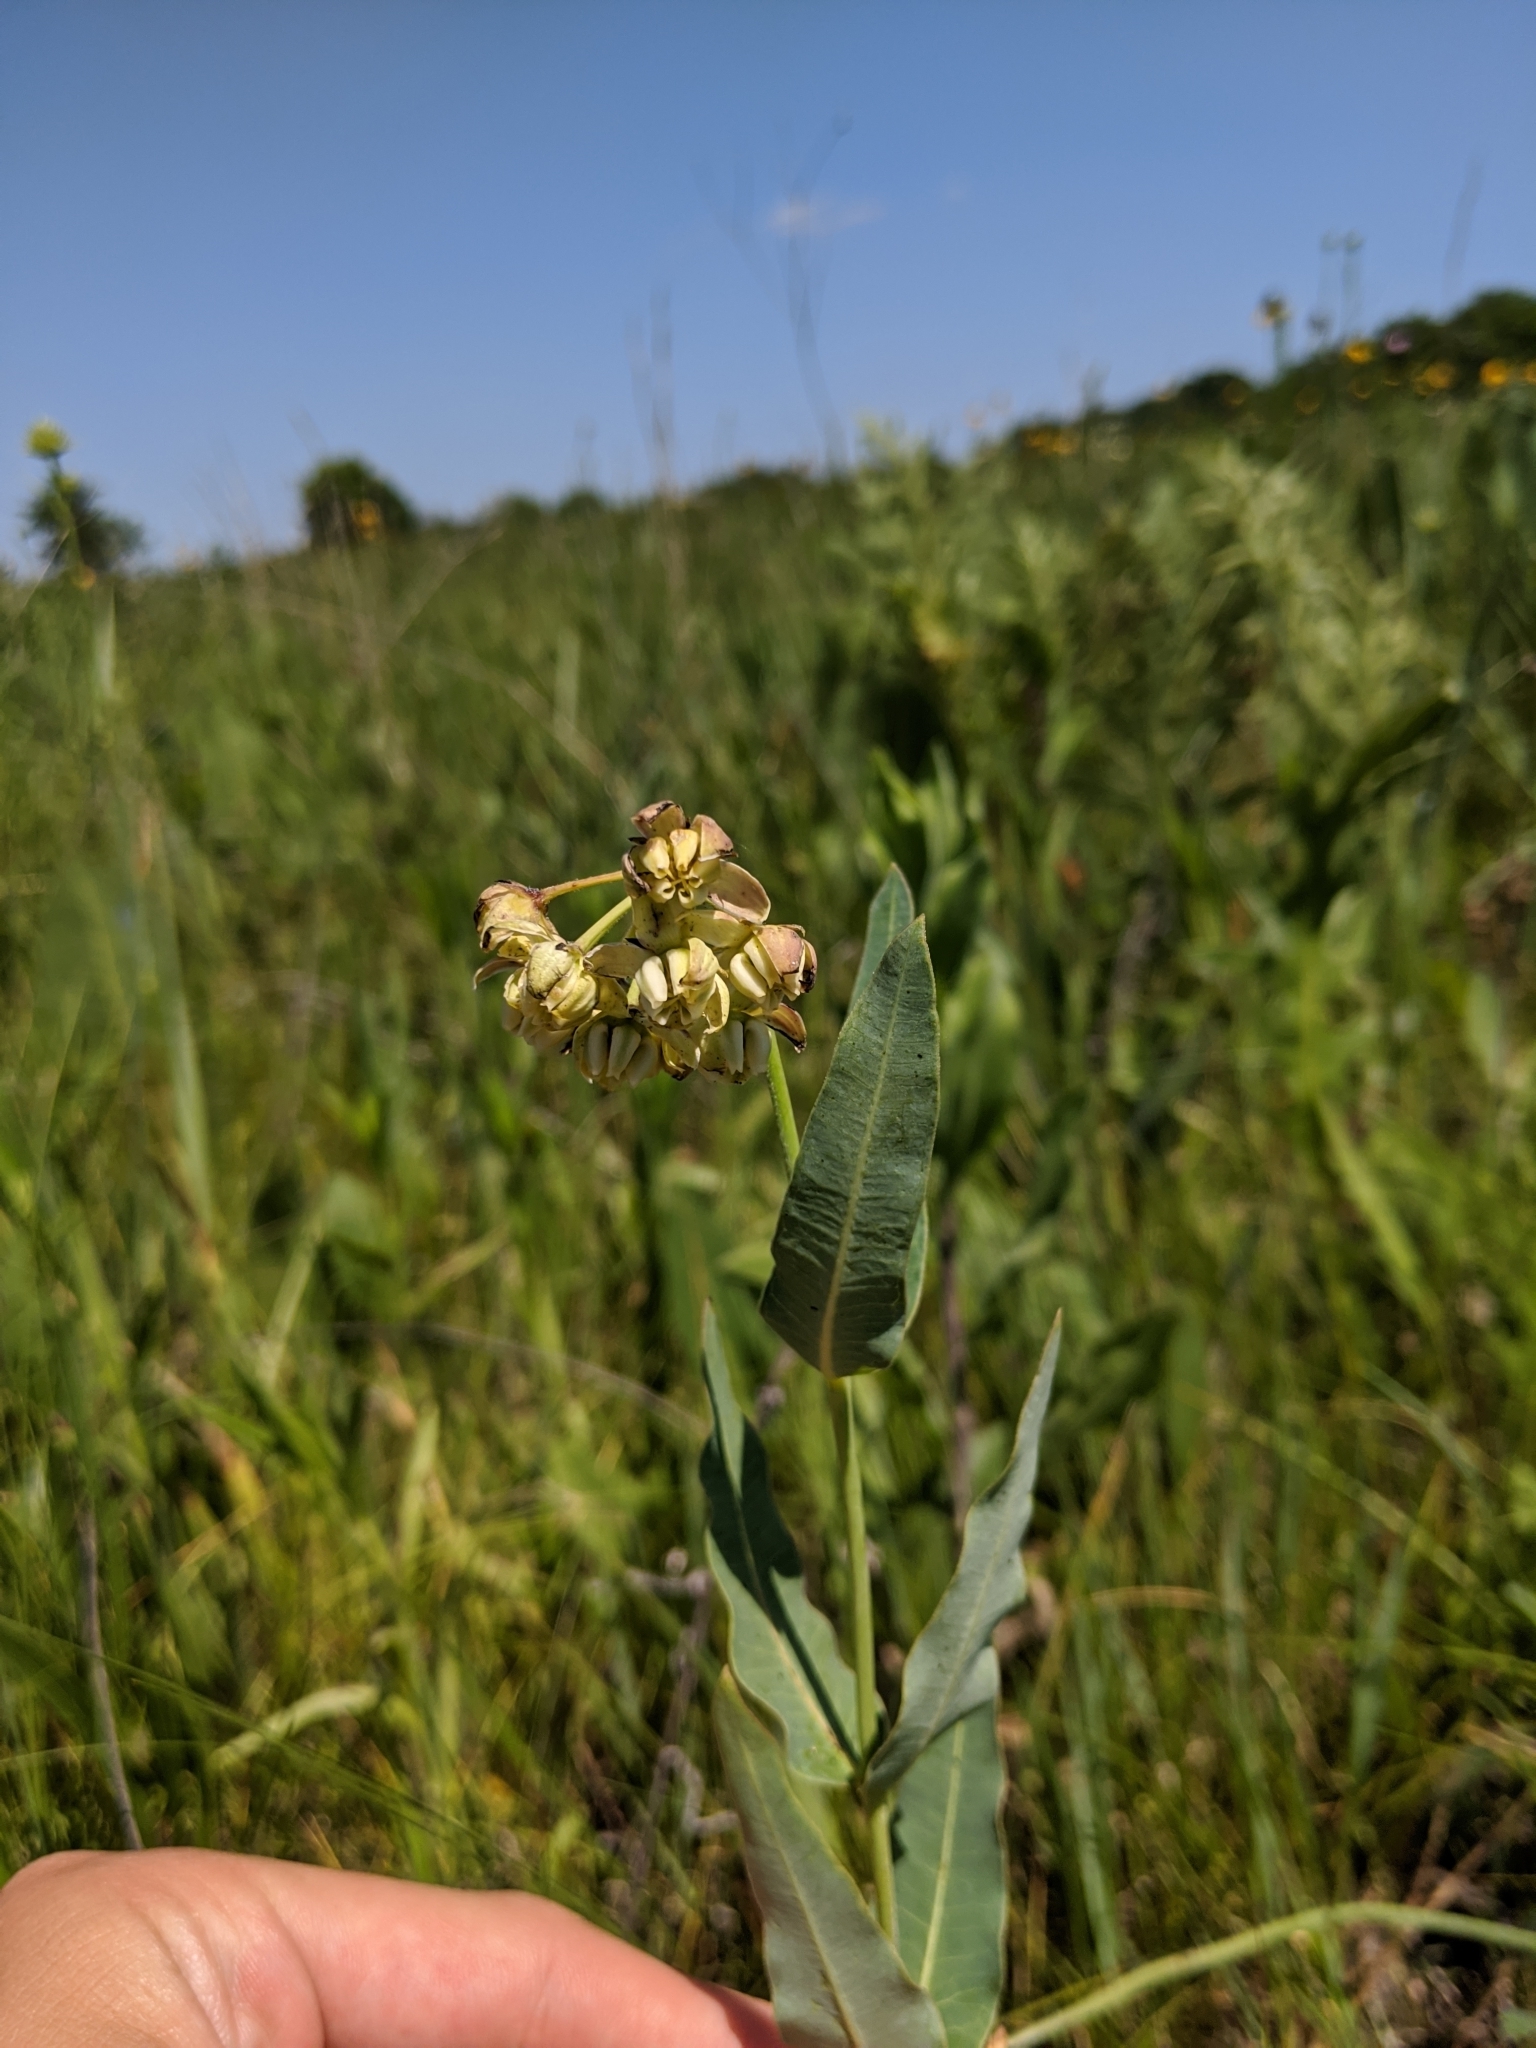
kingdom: Plantae
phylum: Tracheophyta
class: Magnoliopsida
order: Gentianales
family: Apocynaceae
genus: Asclepias
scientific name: Asclepias meadii
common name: Mead's milkweed
